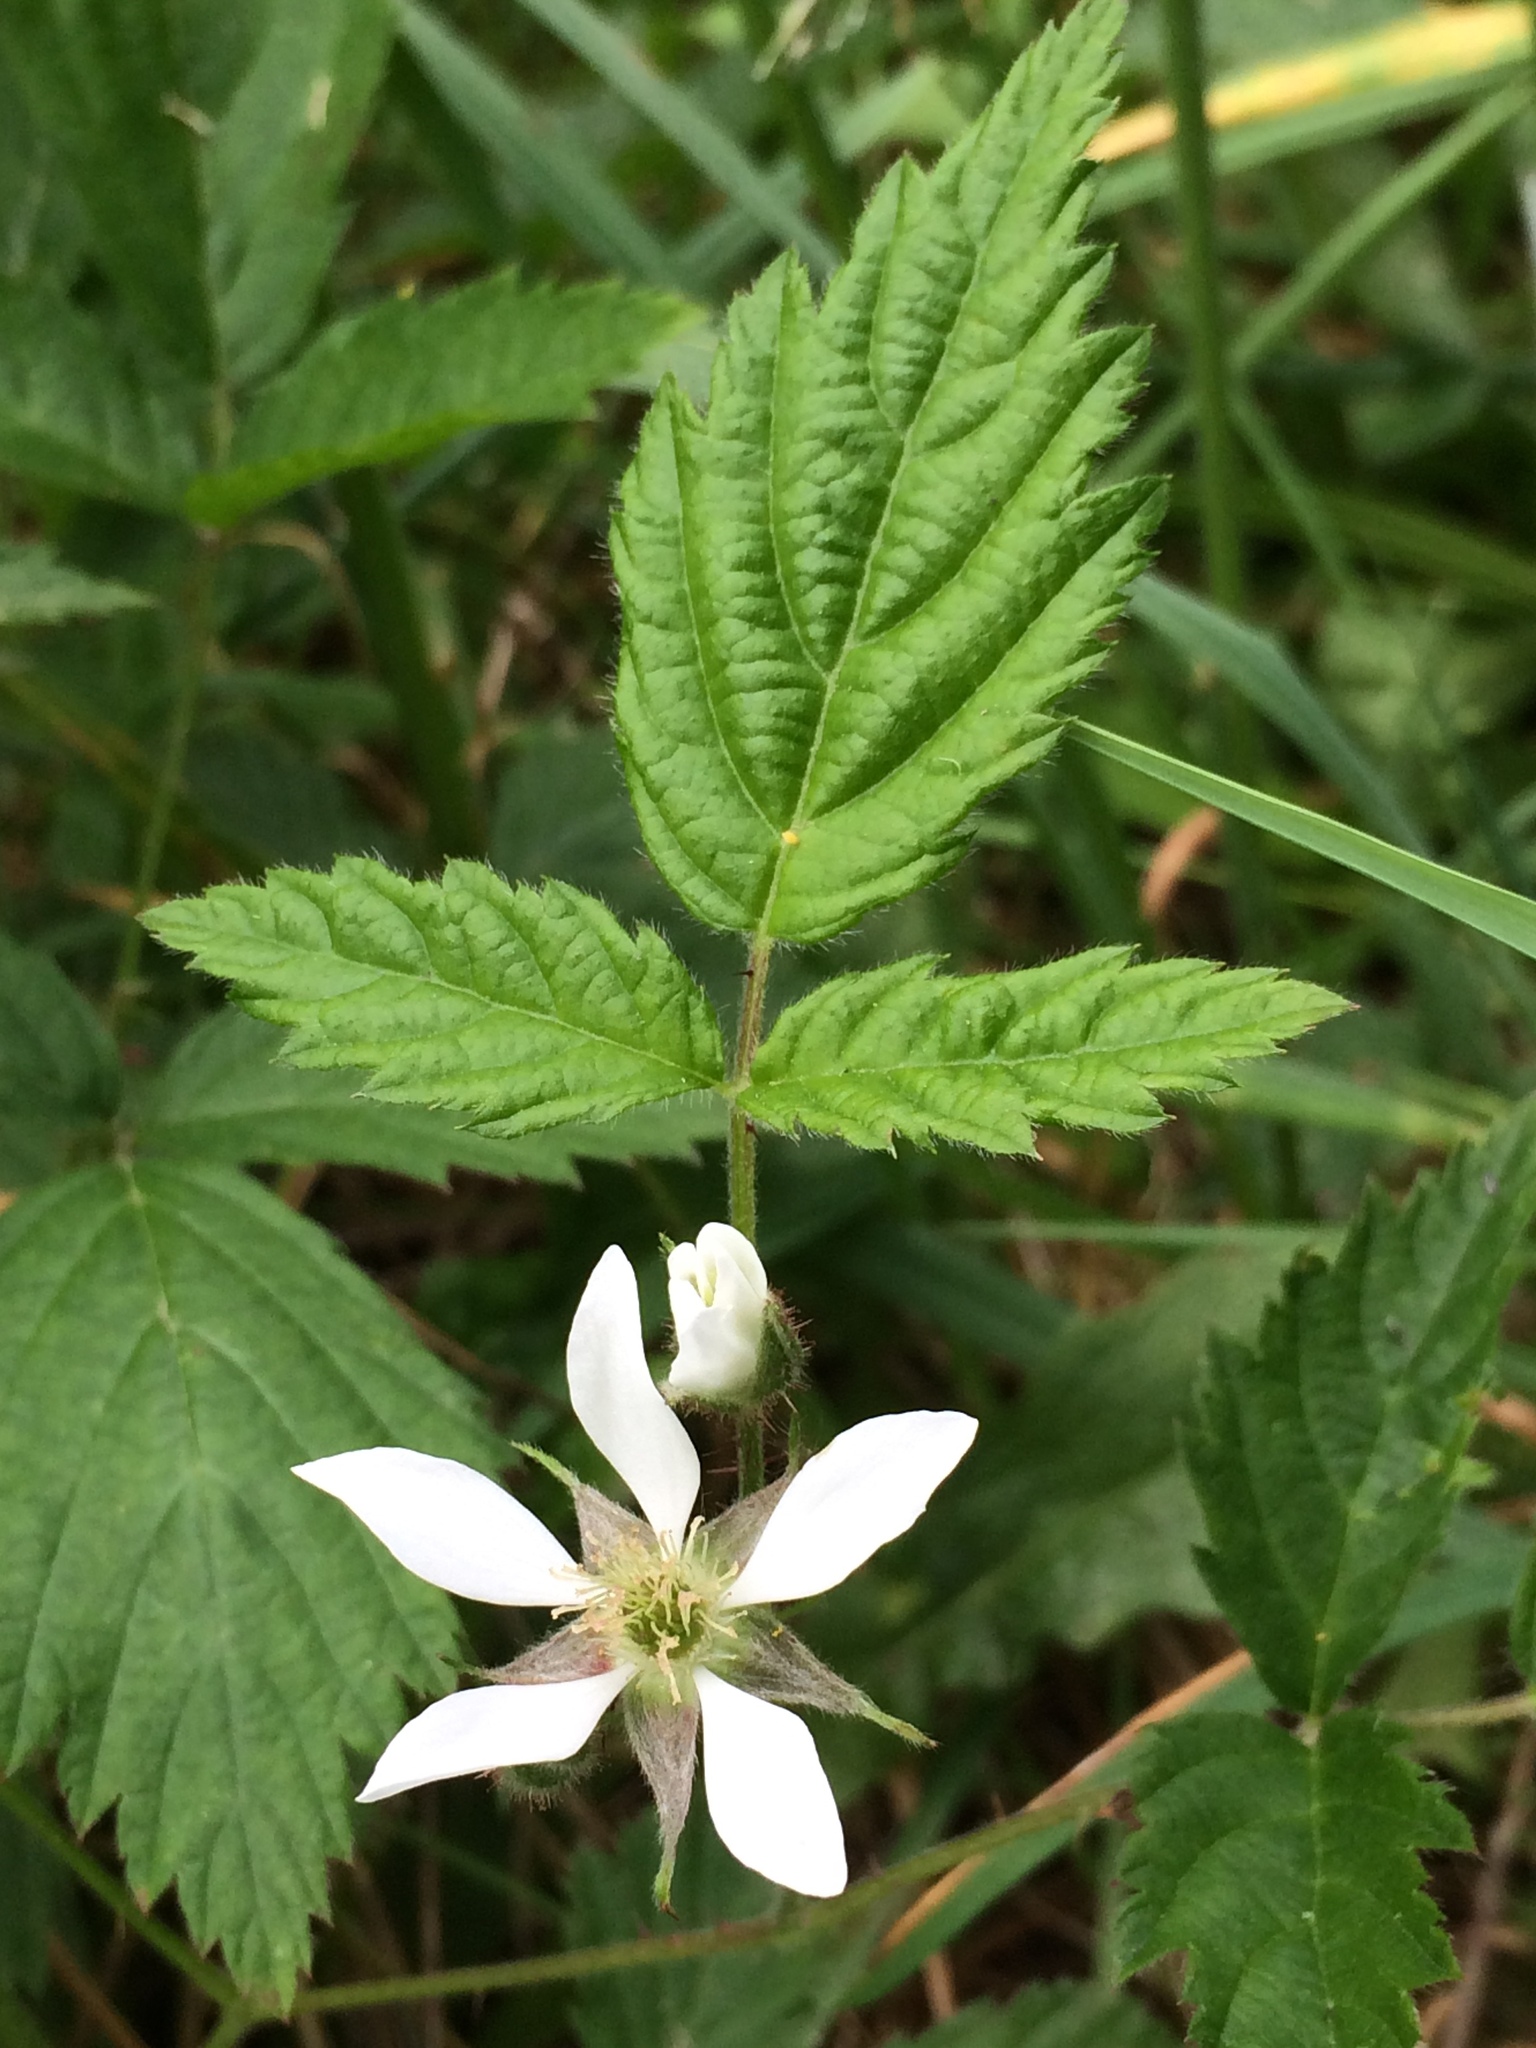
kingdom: Plantae
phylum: Tracheophyta
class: Magnoliopsida
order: Rosales
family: Rosaceae
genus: Rubus
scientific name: Rubus ursinus
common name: Pacific blackberry
